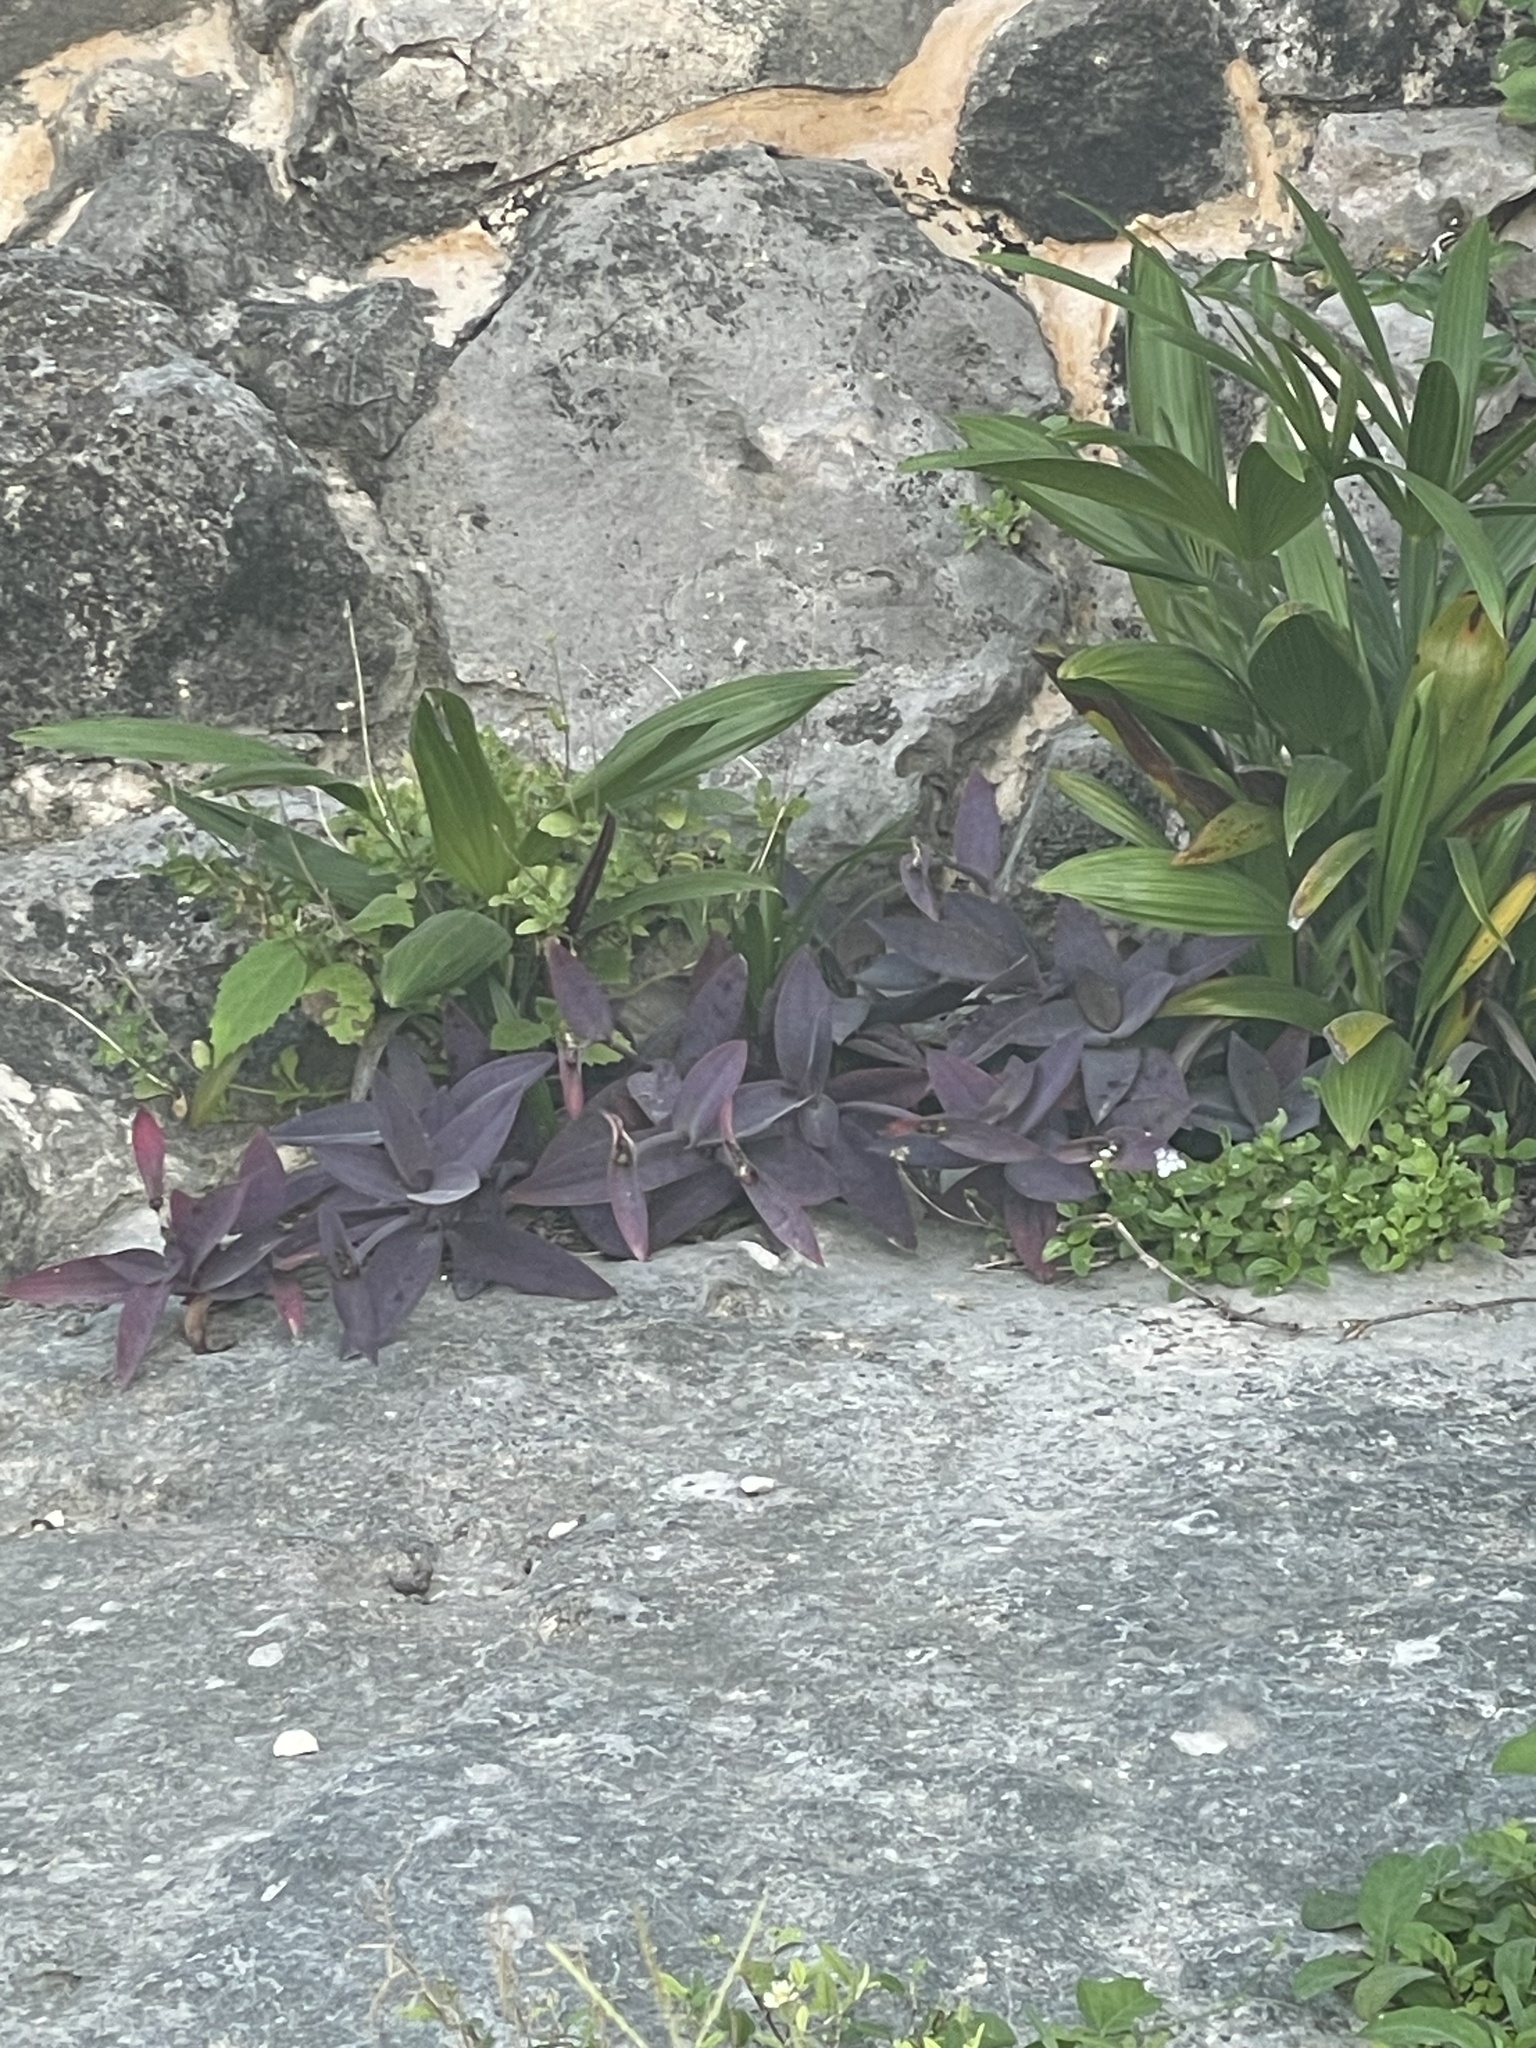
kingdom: Plantae
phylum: Tracheophyta
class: Liliopsida
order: Commelinales
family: Commelinaceae
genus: Tradescantia
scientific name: Tradescantia pallida
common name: Purpleheart
